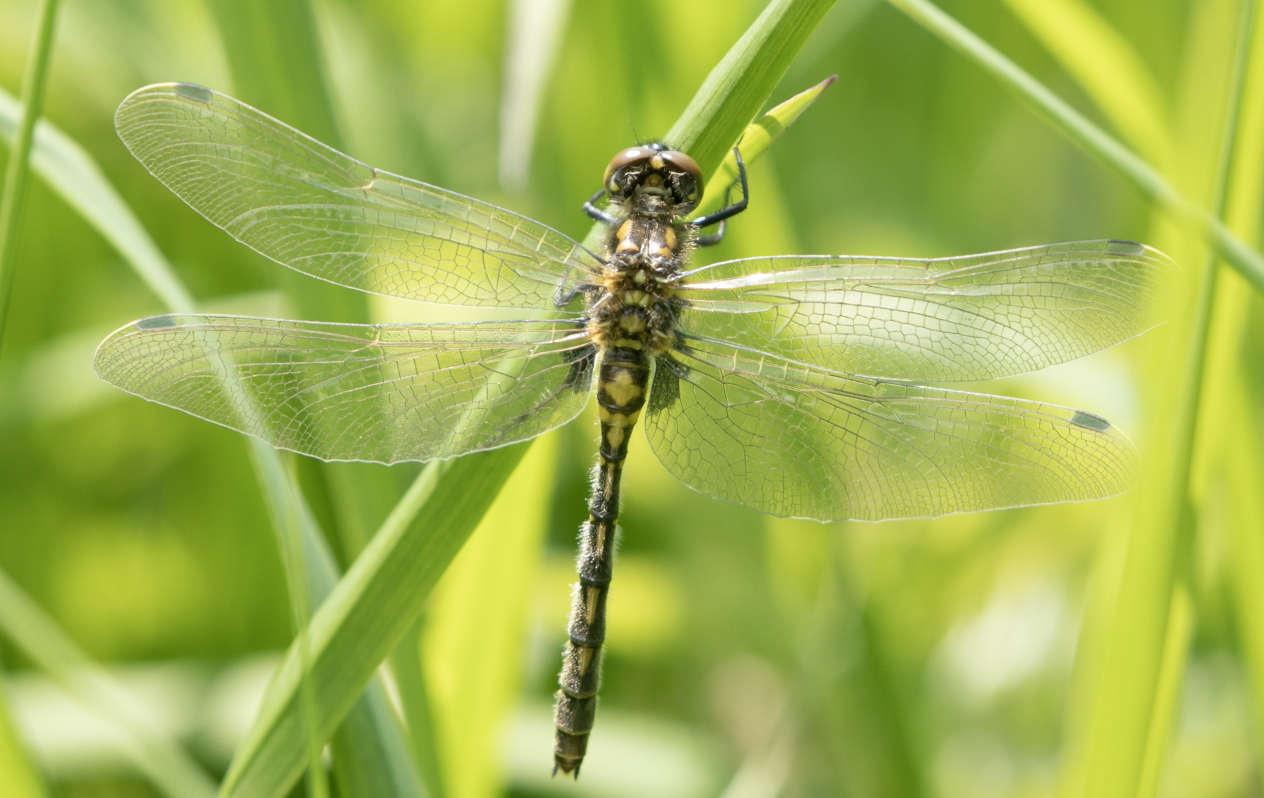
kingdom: Animalia
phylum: Arthropoda
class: Insecta
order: Odonata
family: Libellulidae
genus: Leucorrhinia
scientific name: Leucorrhinia dubia
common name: White-faced darter
